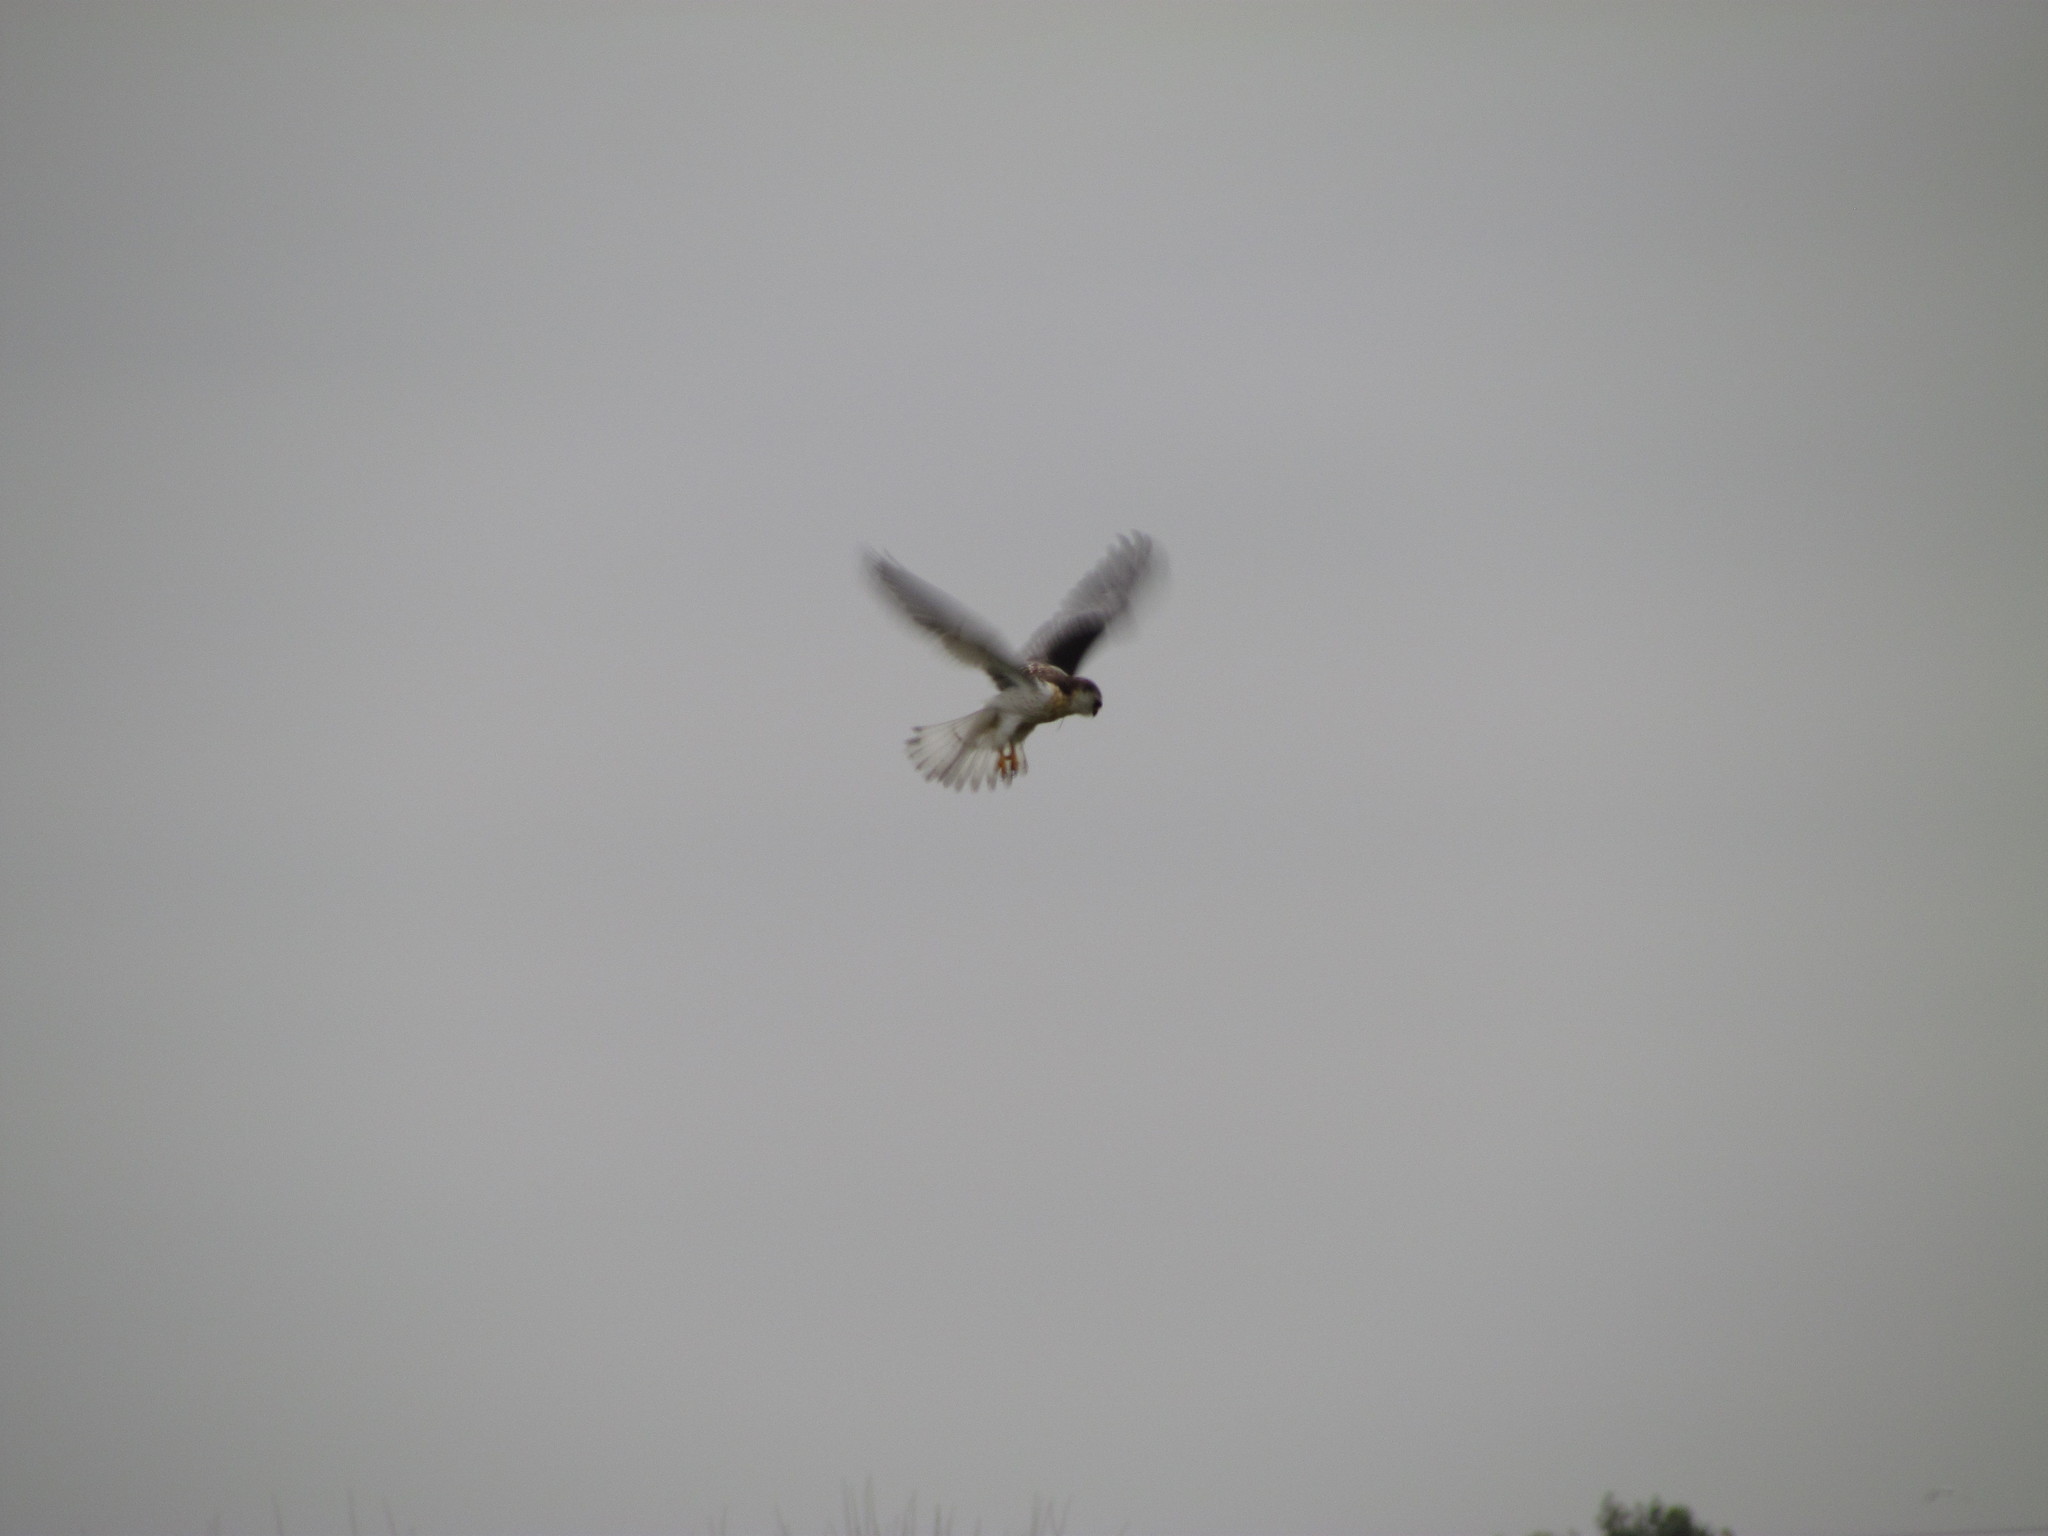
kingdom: Animalia
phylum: Chordata
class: Aves
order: Accipitriformes
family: Accipitridae
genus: Elanus
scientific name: Elanus leucurus
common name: White-tailed kite
